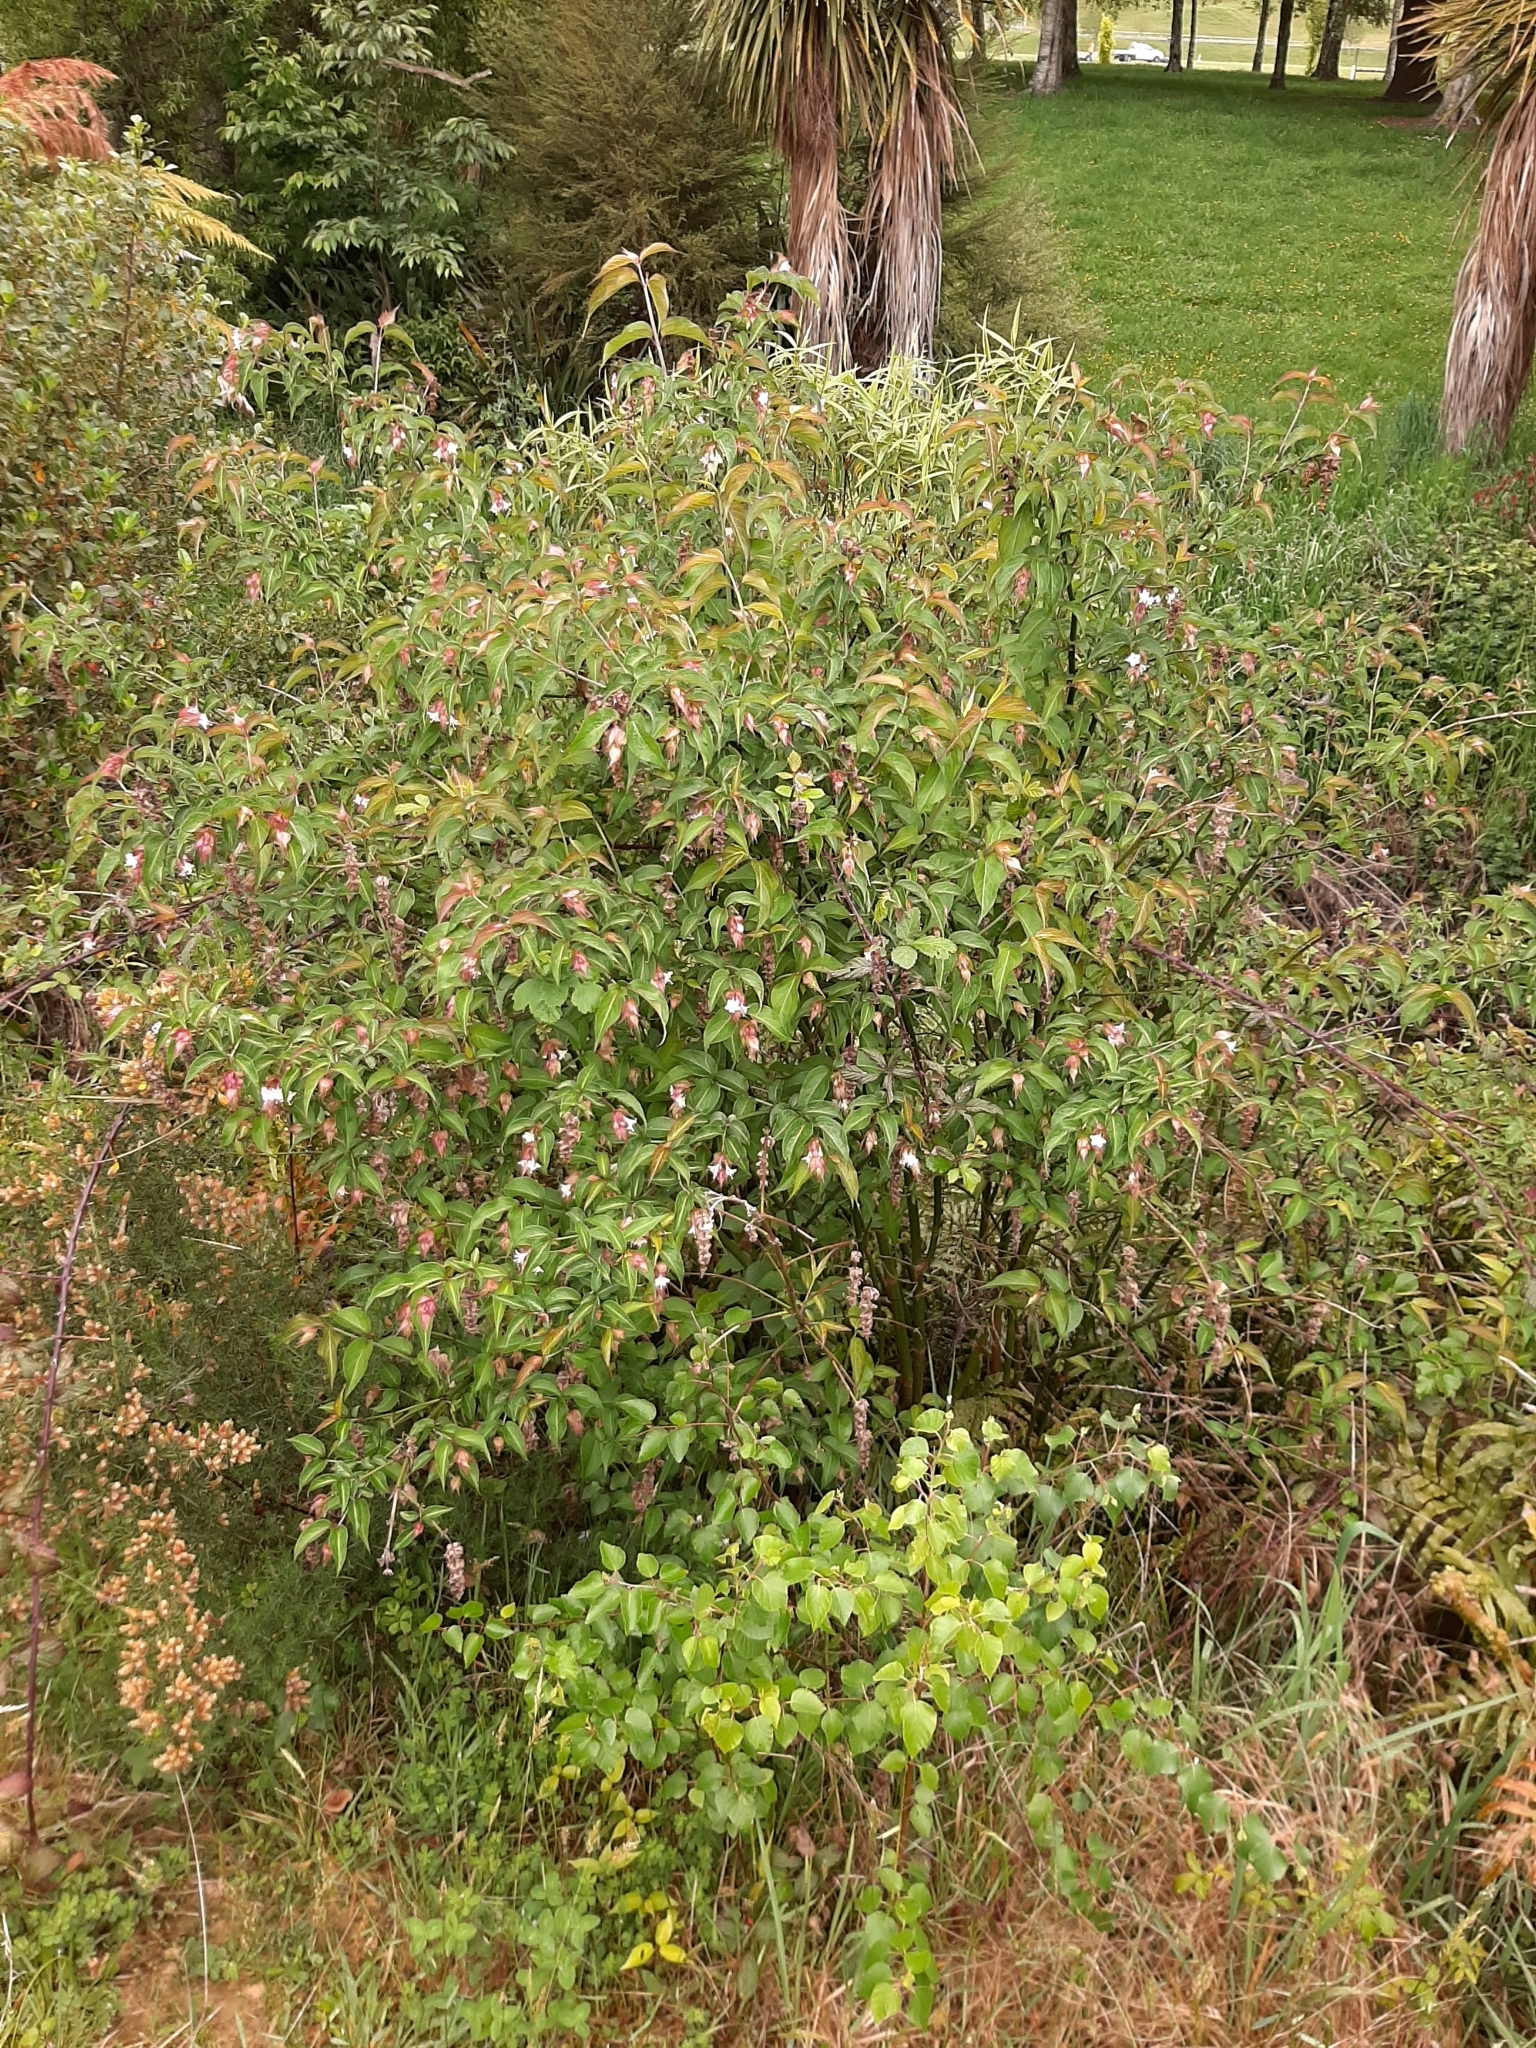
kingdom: Plantae
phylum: Tracheophyta
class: Magnoliopsida
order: Dipsacales
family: Caprifoliaceae
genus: Leycesteria
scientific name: Leycesteria formosa
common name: Himalayan honeysuckle
